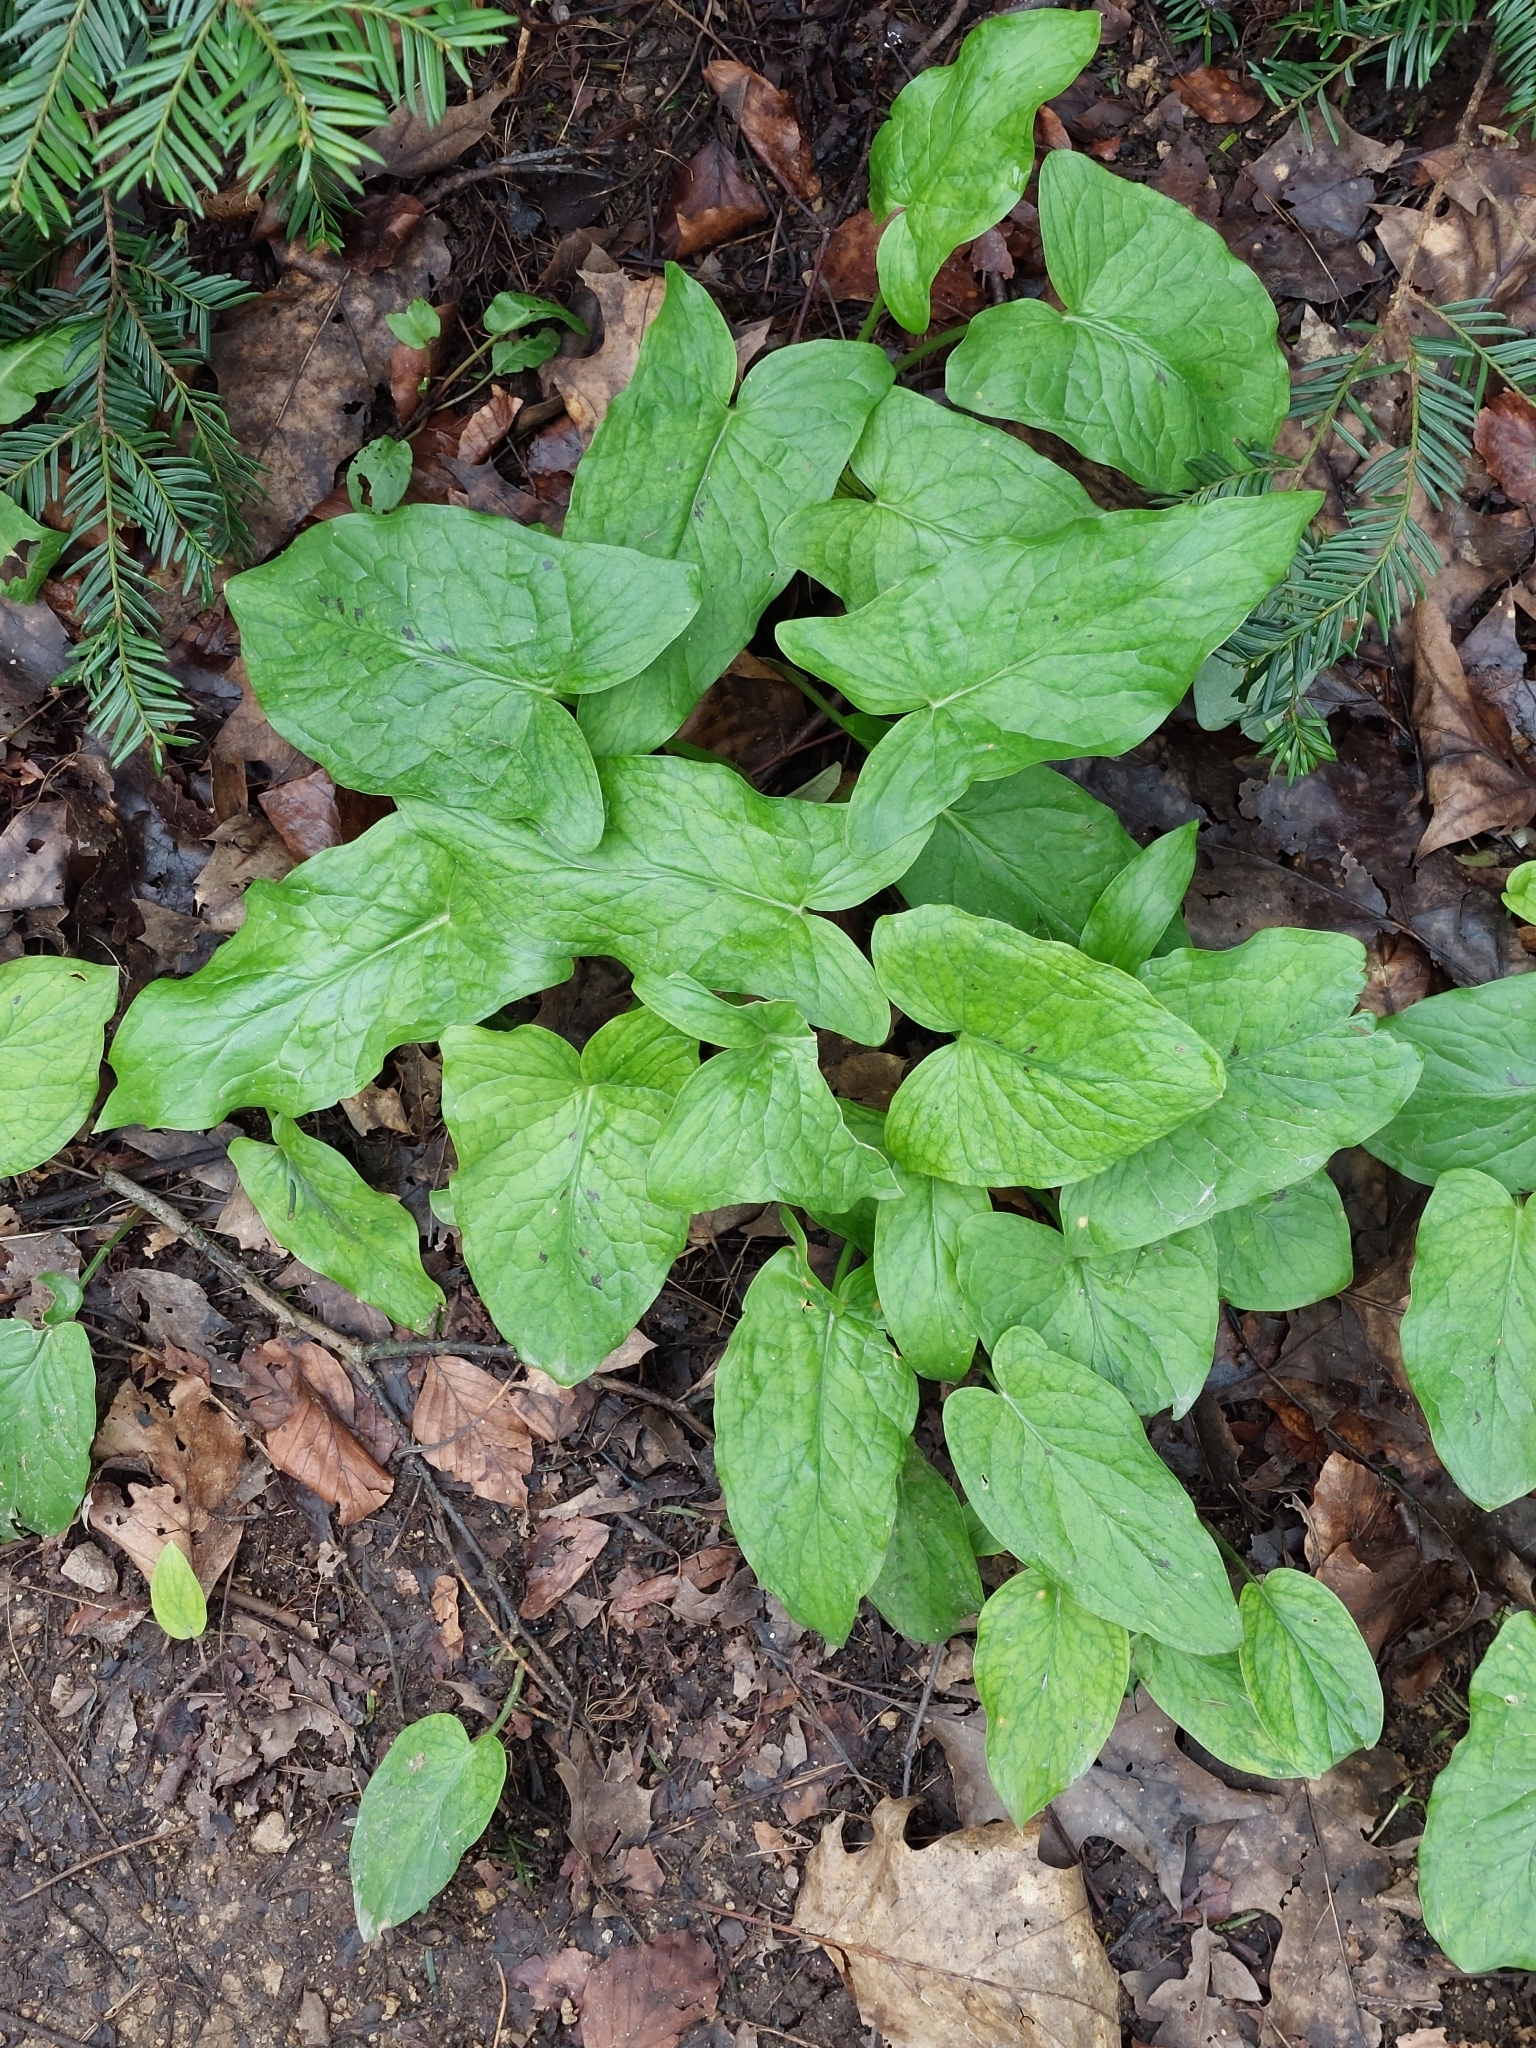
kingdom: Plantae
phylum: Tracheophyta
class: Liliopsida
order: Alismatales
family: Araceae
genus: Arum
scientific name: Arum maculatum
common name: Lords-and-ladies
